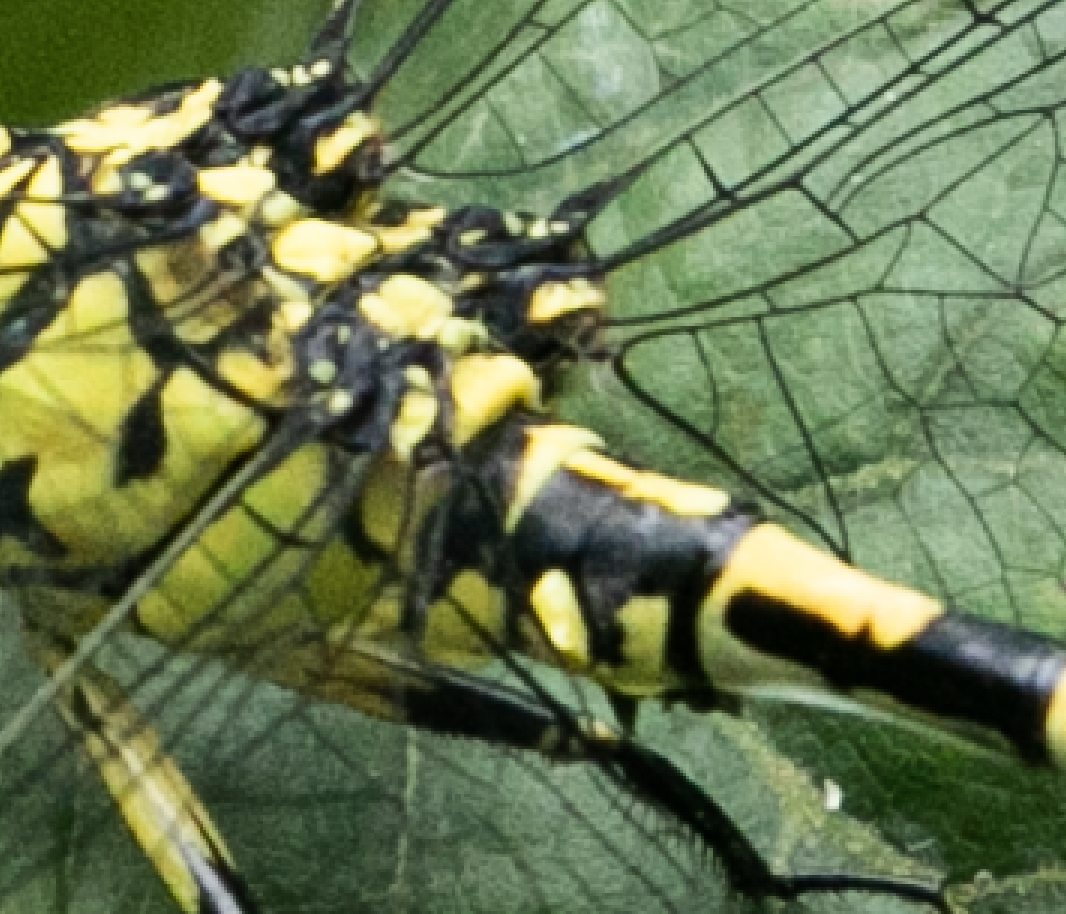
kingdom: Animalia
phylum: Arthropoda
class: Insecta
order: Odonata
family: Gomphidae
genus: Onychogomphus
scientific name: Onychogomphus forcipatus
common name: Small pincertail
